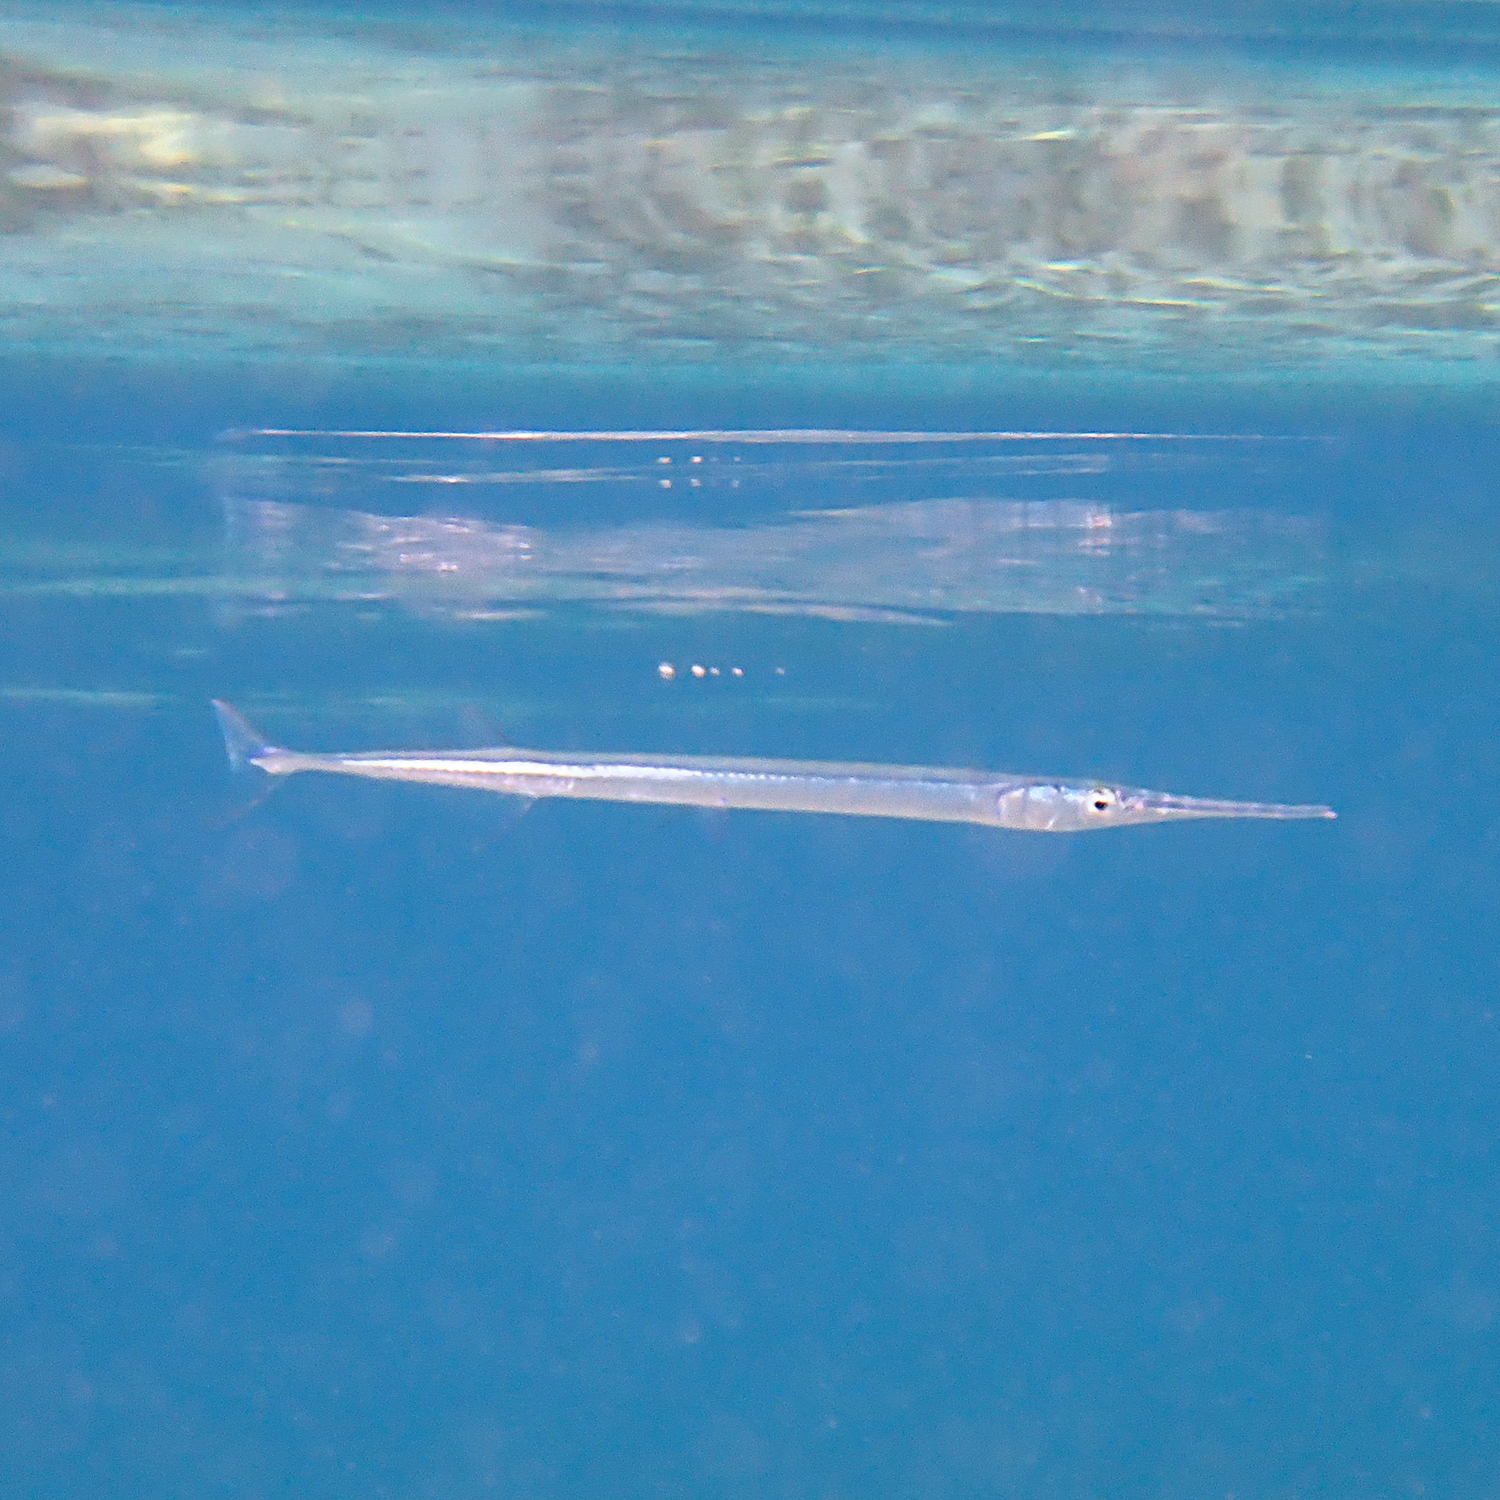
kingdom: Animalia
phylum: Chordata
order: Beloniformes
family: Belonidae
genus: Strongylura
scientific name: Strongylura leiura
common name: Banded needlefish
